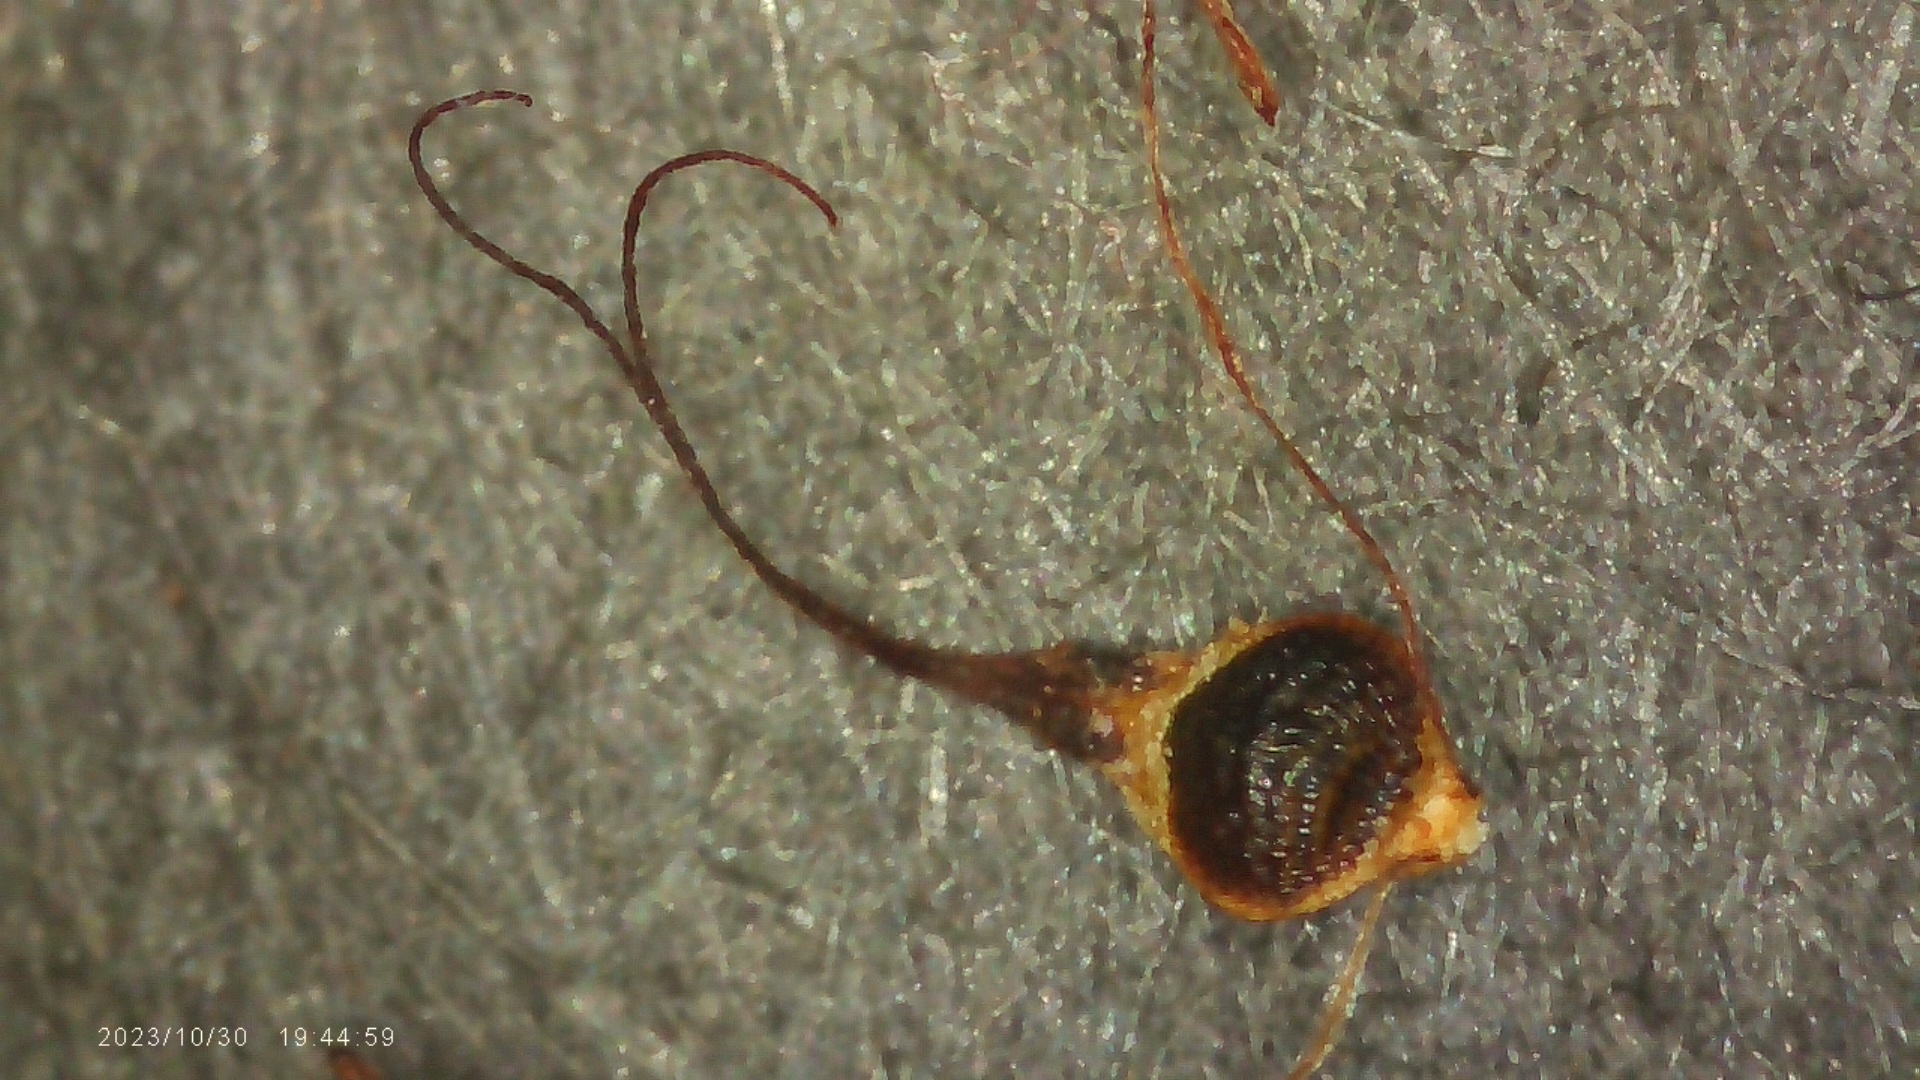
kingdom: Plantae
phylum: Tracheophyta
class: Liliopsida
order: Poales
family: Cyperaceae
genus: Rhynchospora
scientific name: Rhynchospora scirpoides
